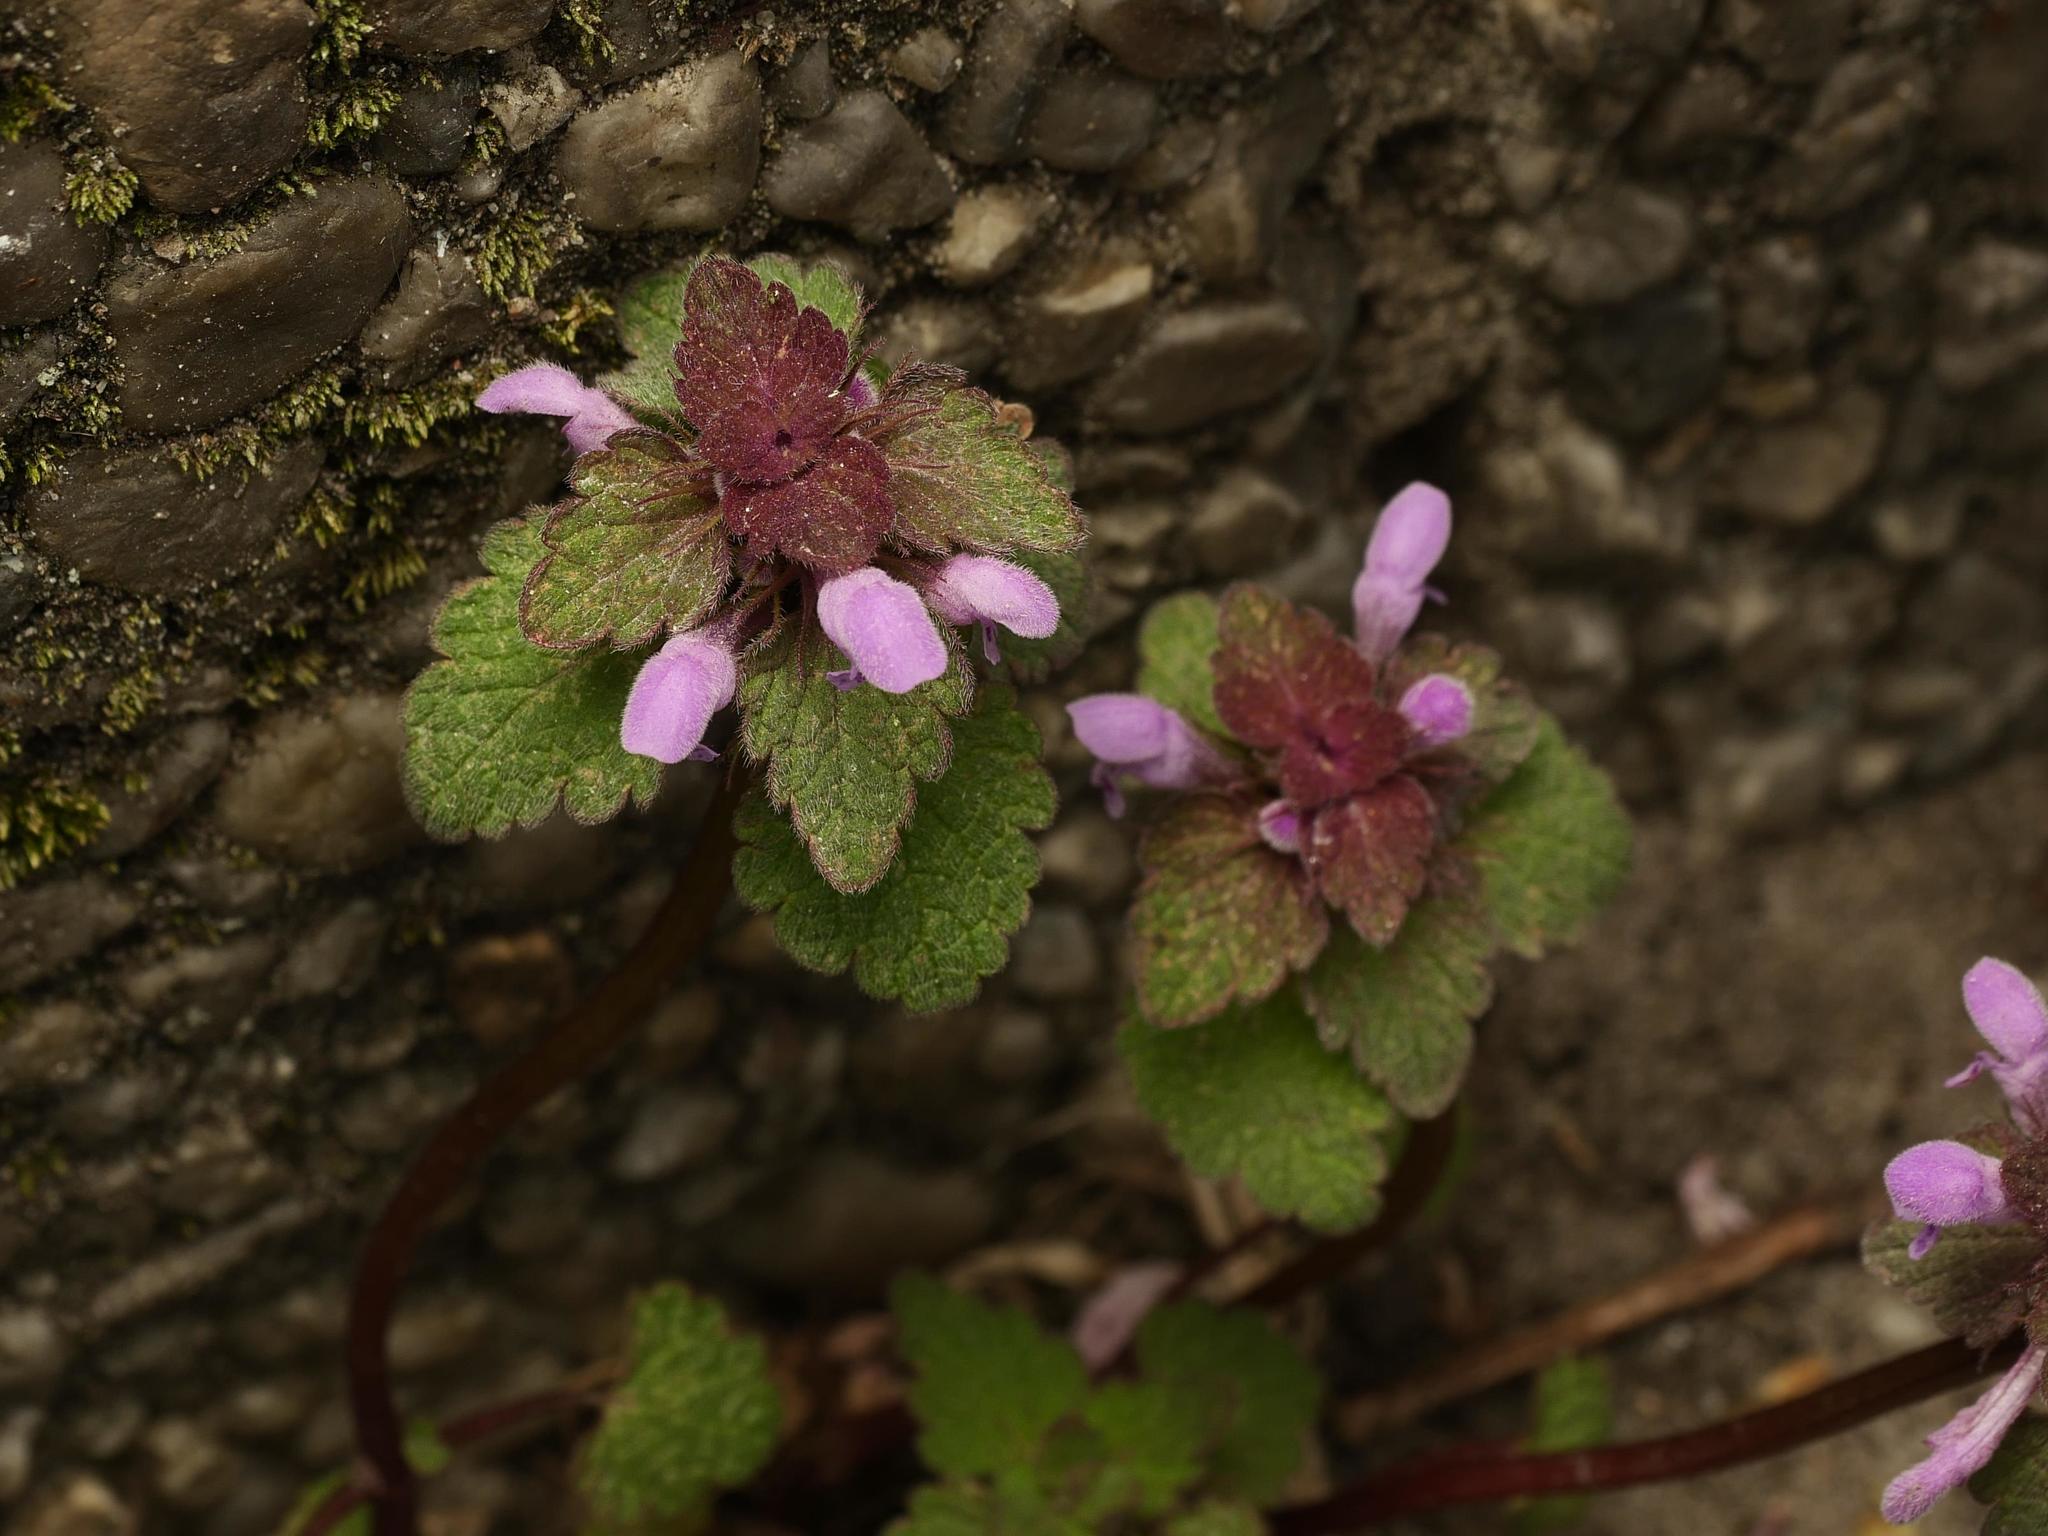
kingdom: Plantae
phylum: Tracheophyta
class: Magnoliopsida
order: Lamiales
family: Lamiaceae
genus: Lamium
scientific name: Lamium purpureum
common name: Red dead-nettle
